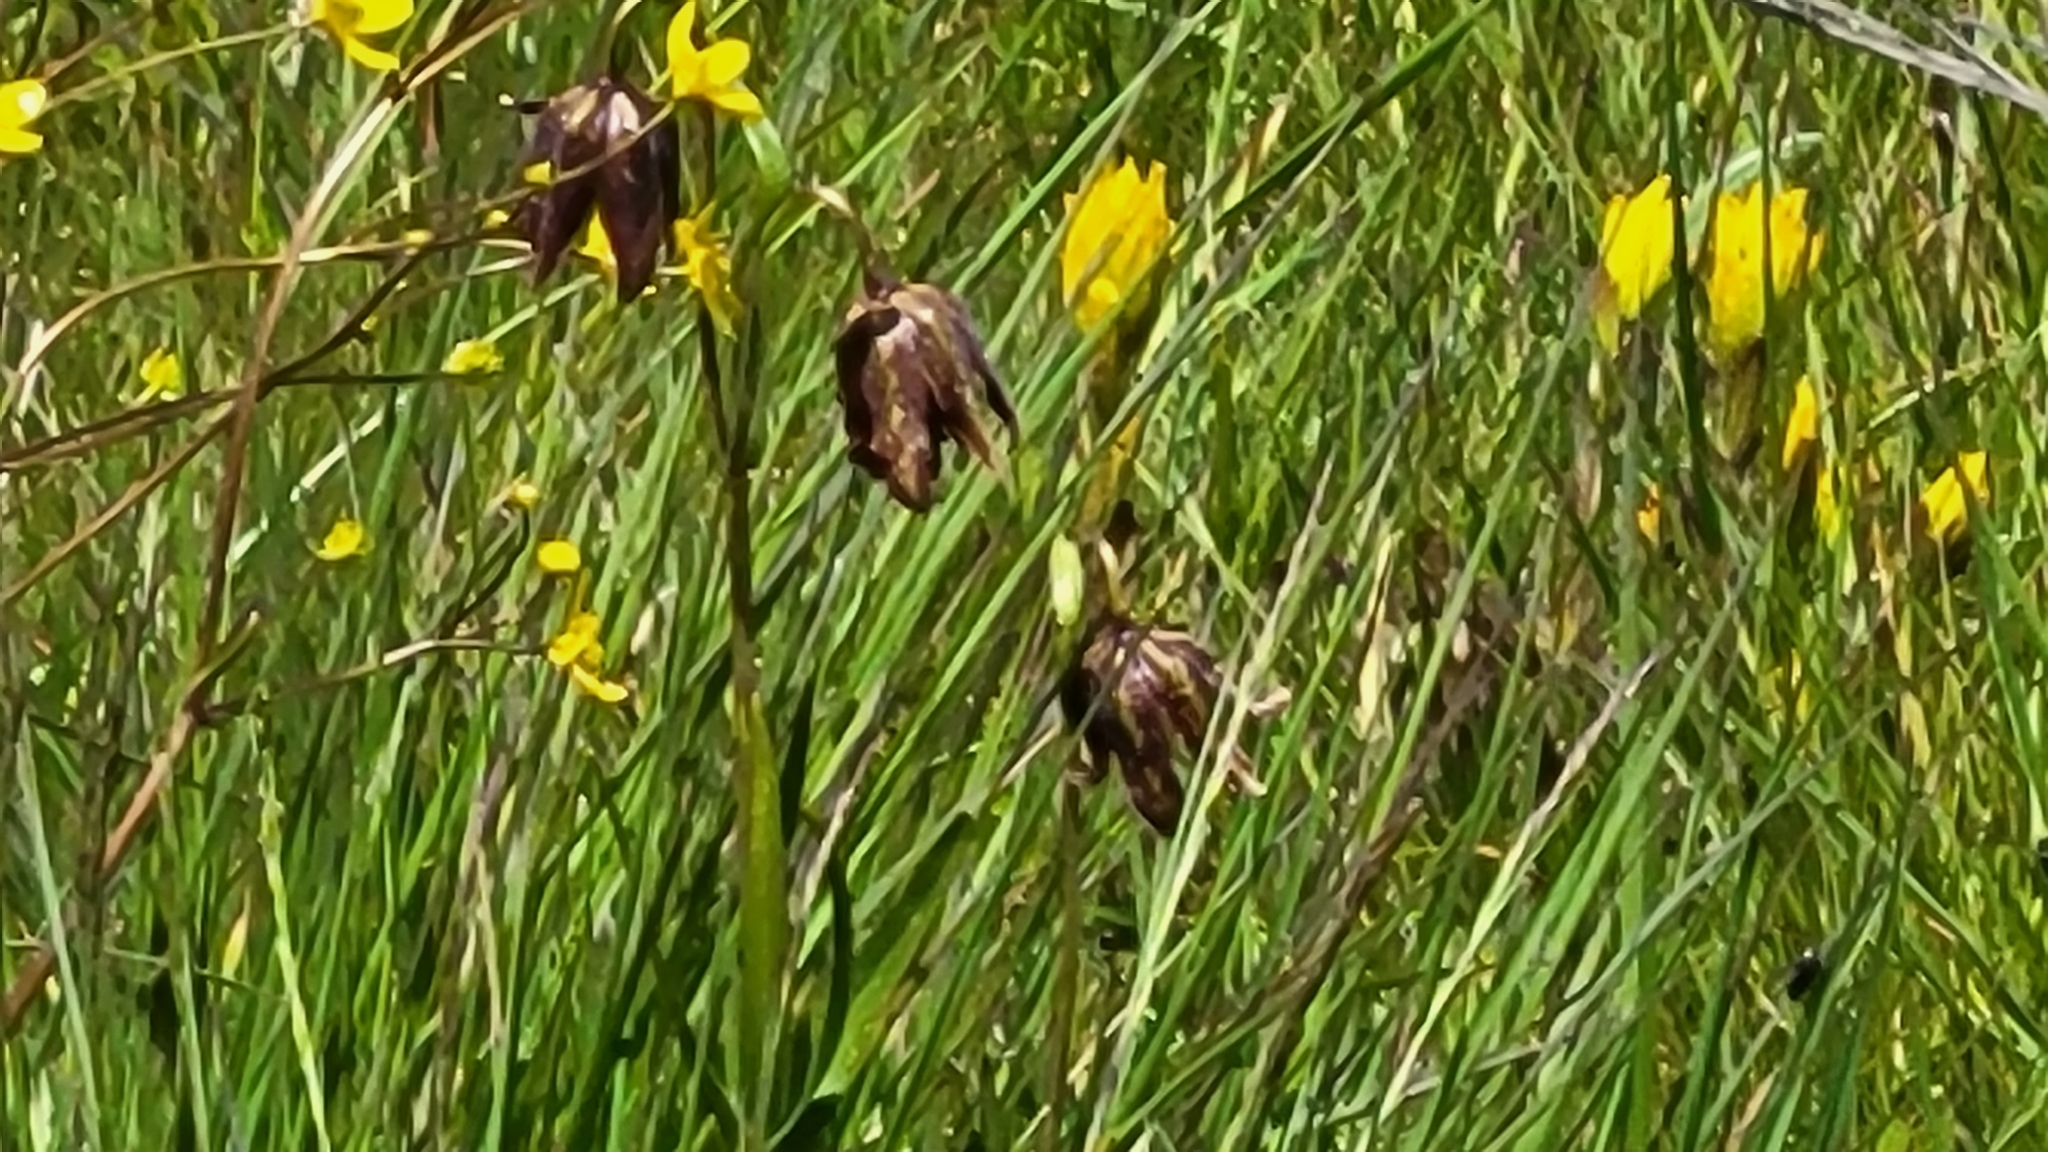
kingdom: Plantae
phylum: Tracheophyta
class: Liliopsida
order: Liliales
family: Liliaceae
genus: Fritillaria
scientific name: Fritillaria affinis
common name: Ojai fritillary
